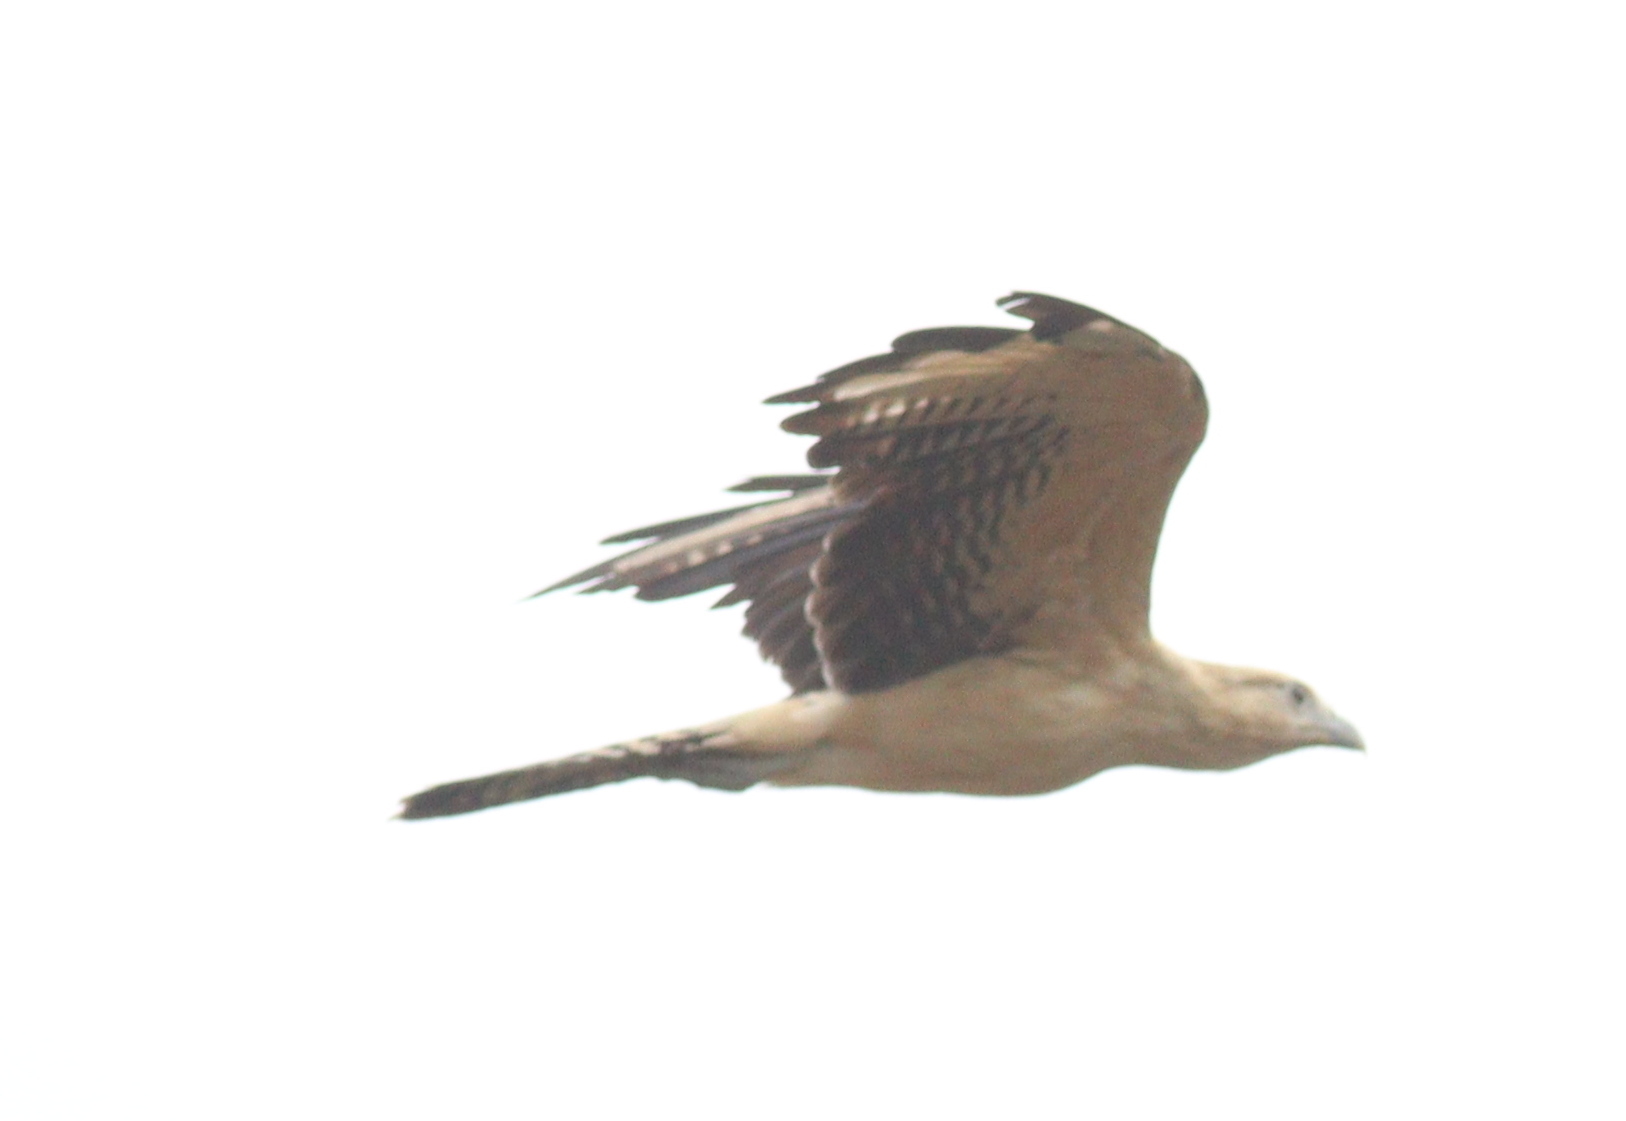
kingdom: Animalia
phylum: Chordata
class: Aves
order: Falconiformes
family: Falconidae
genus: Daptrius
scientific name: Daptrius
